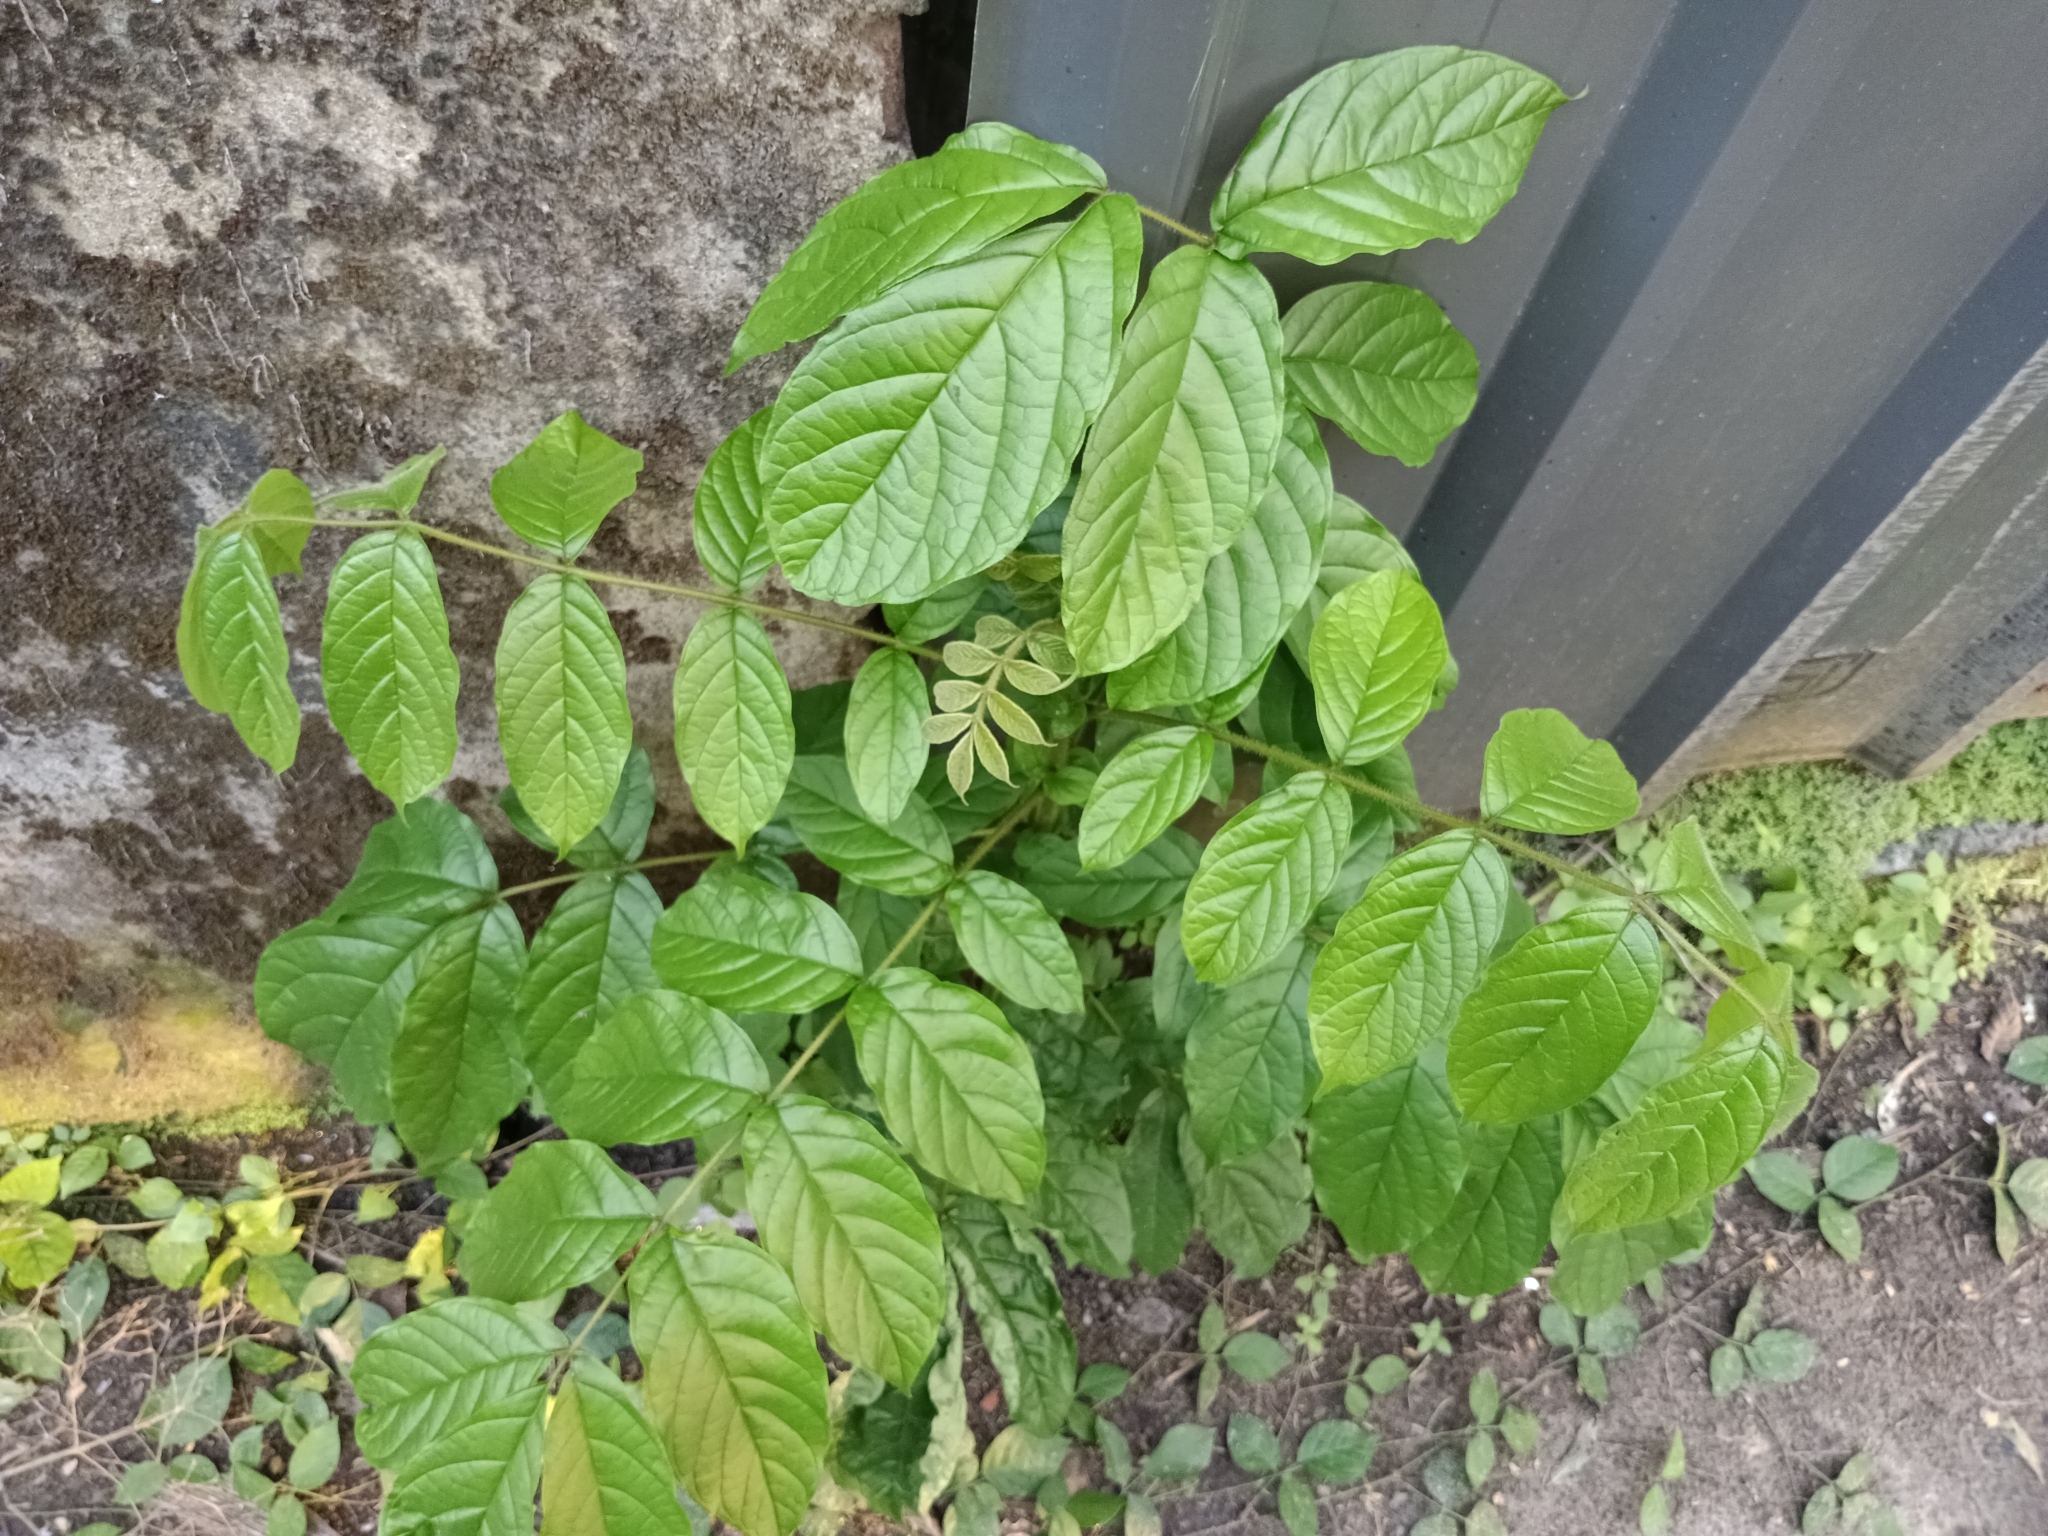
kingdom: Plantae
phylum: Tracheophyta
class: Magnoliopsida
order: Lamiales
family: Bignoniaceae
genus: Spathodea
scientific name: Spathodea campanulata
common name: African tuliptree
